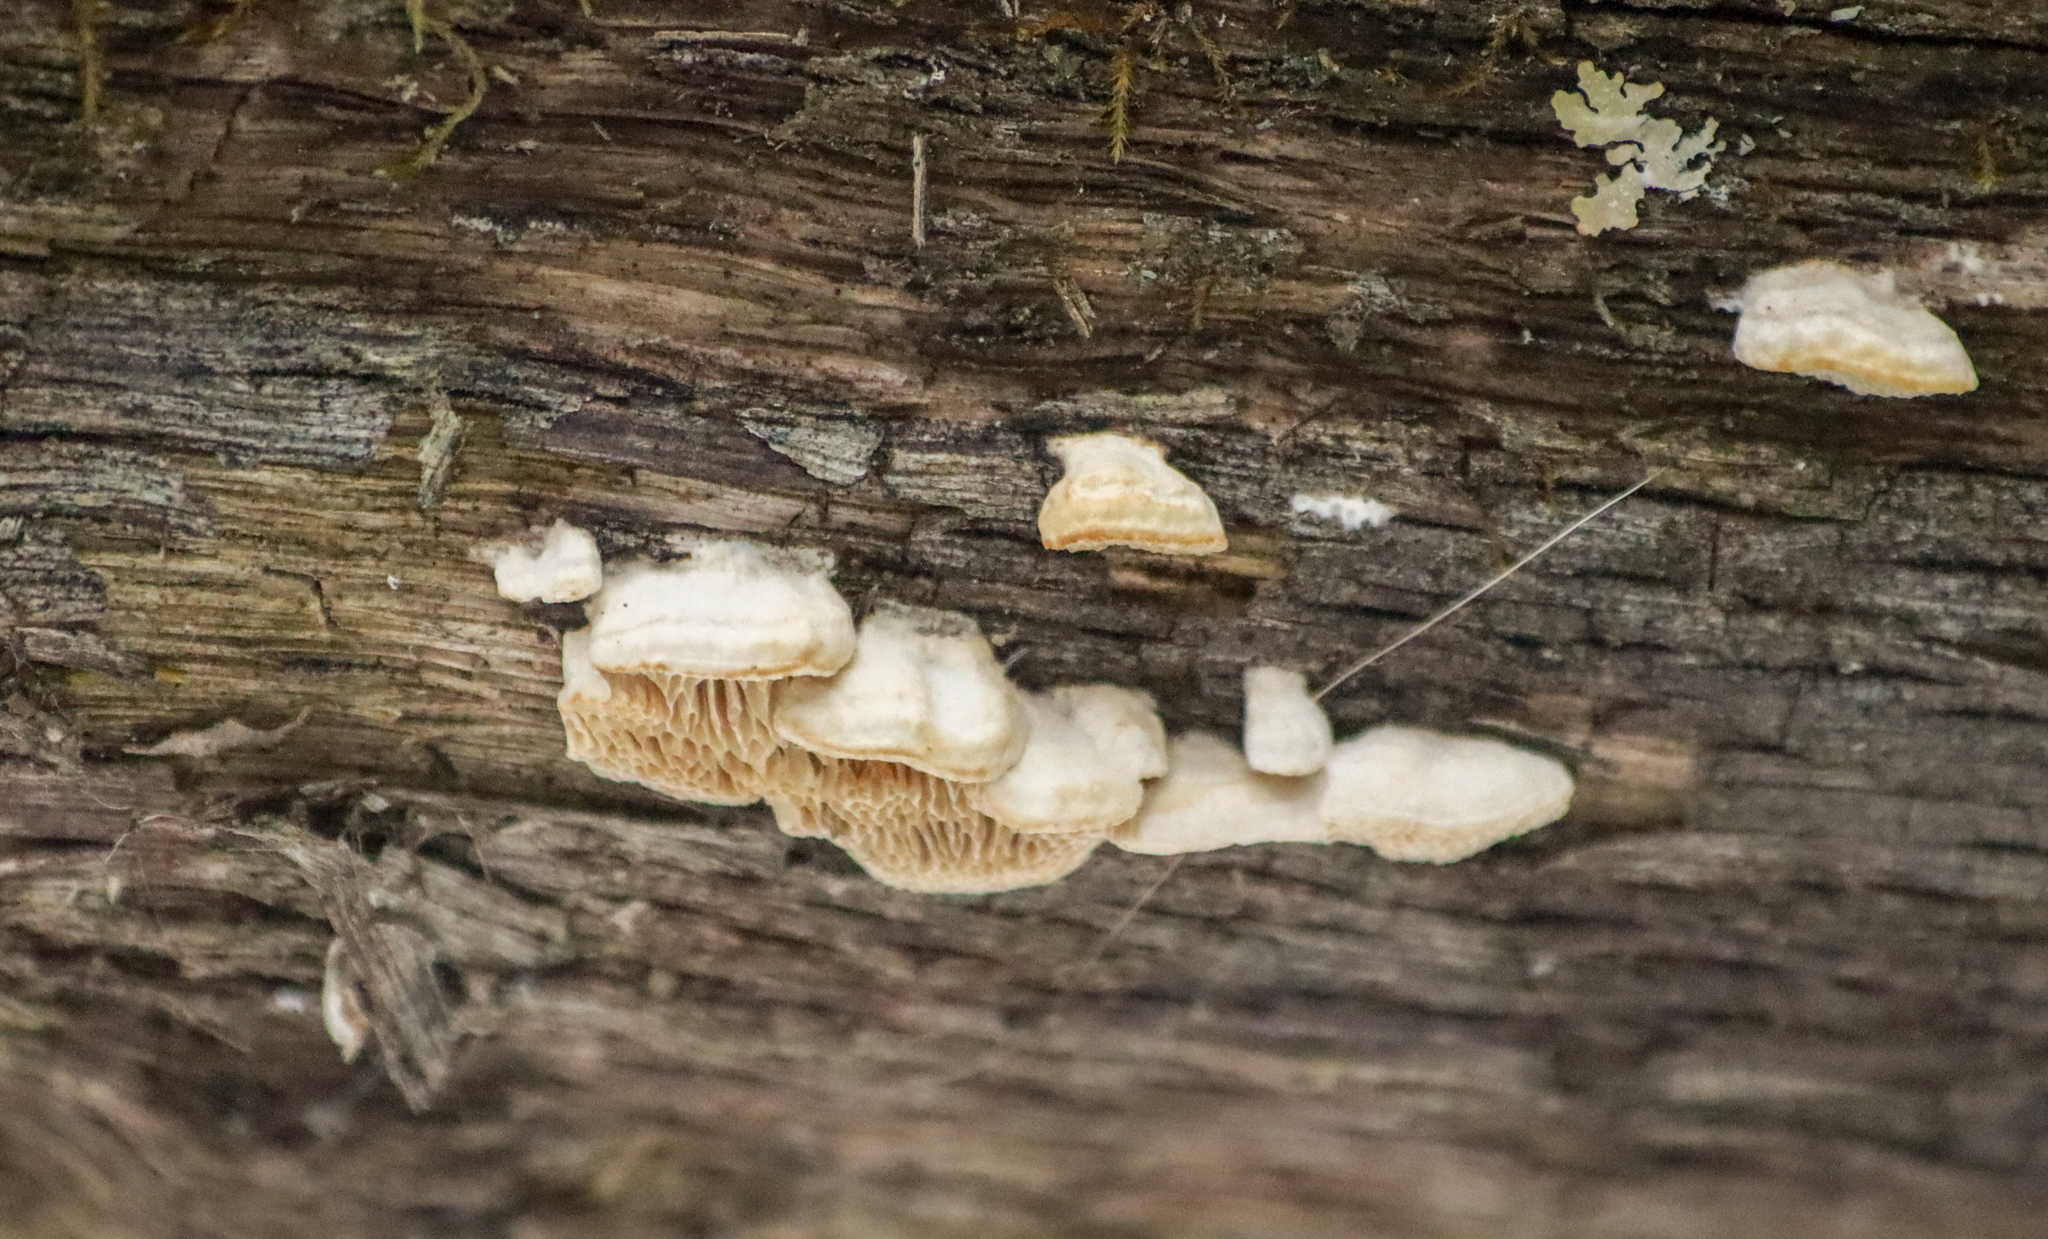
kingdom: Fungi
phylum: Basidiomycota
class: Agaricomycetes
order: Polyporales
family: Fomitopsidaceae
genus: Fomitopsis
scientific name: Fomitopsis
